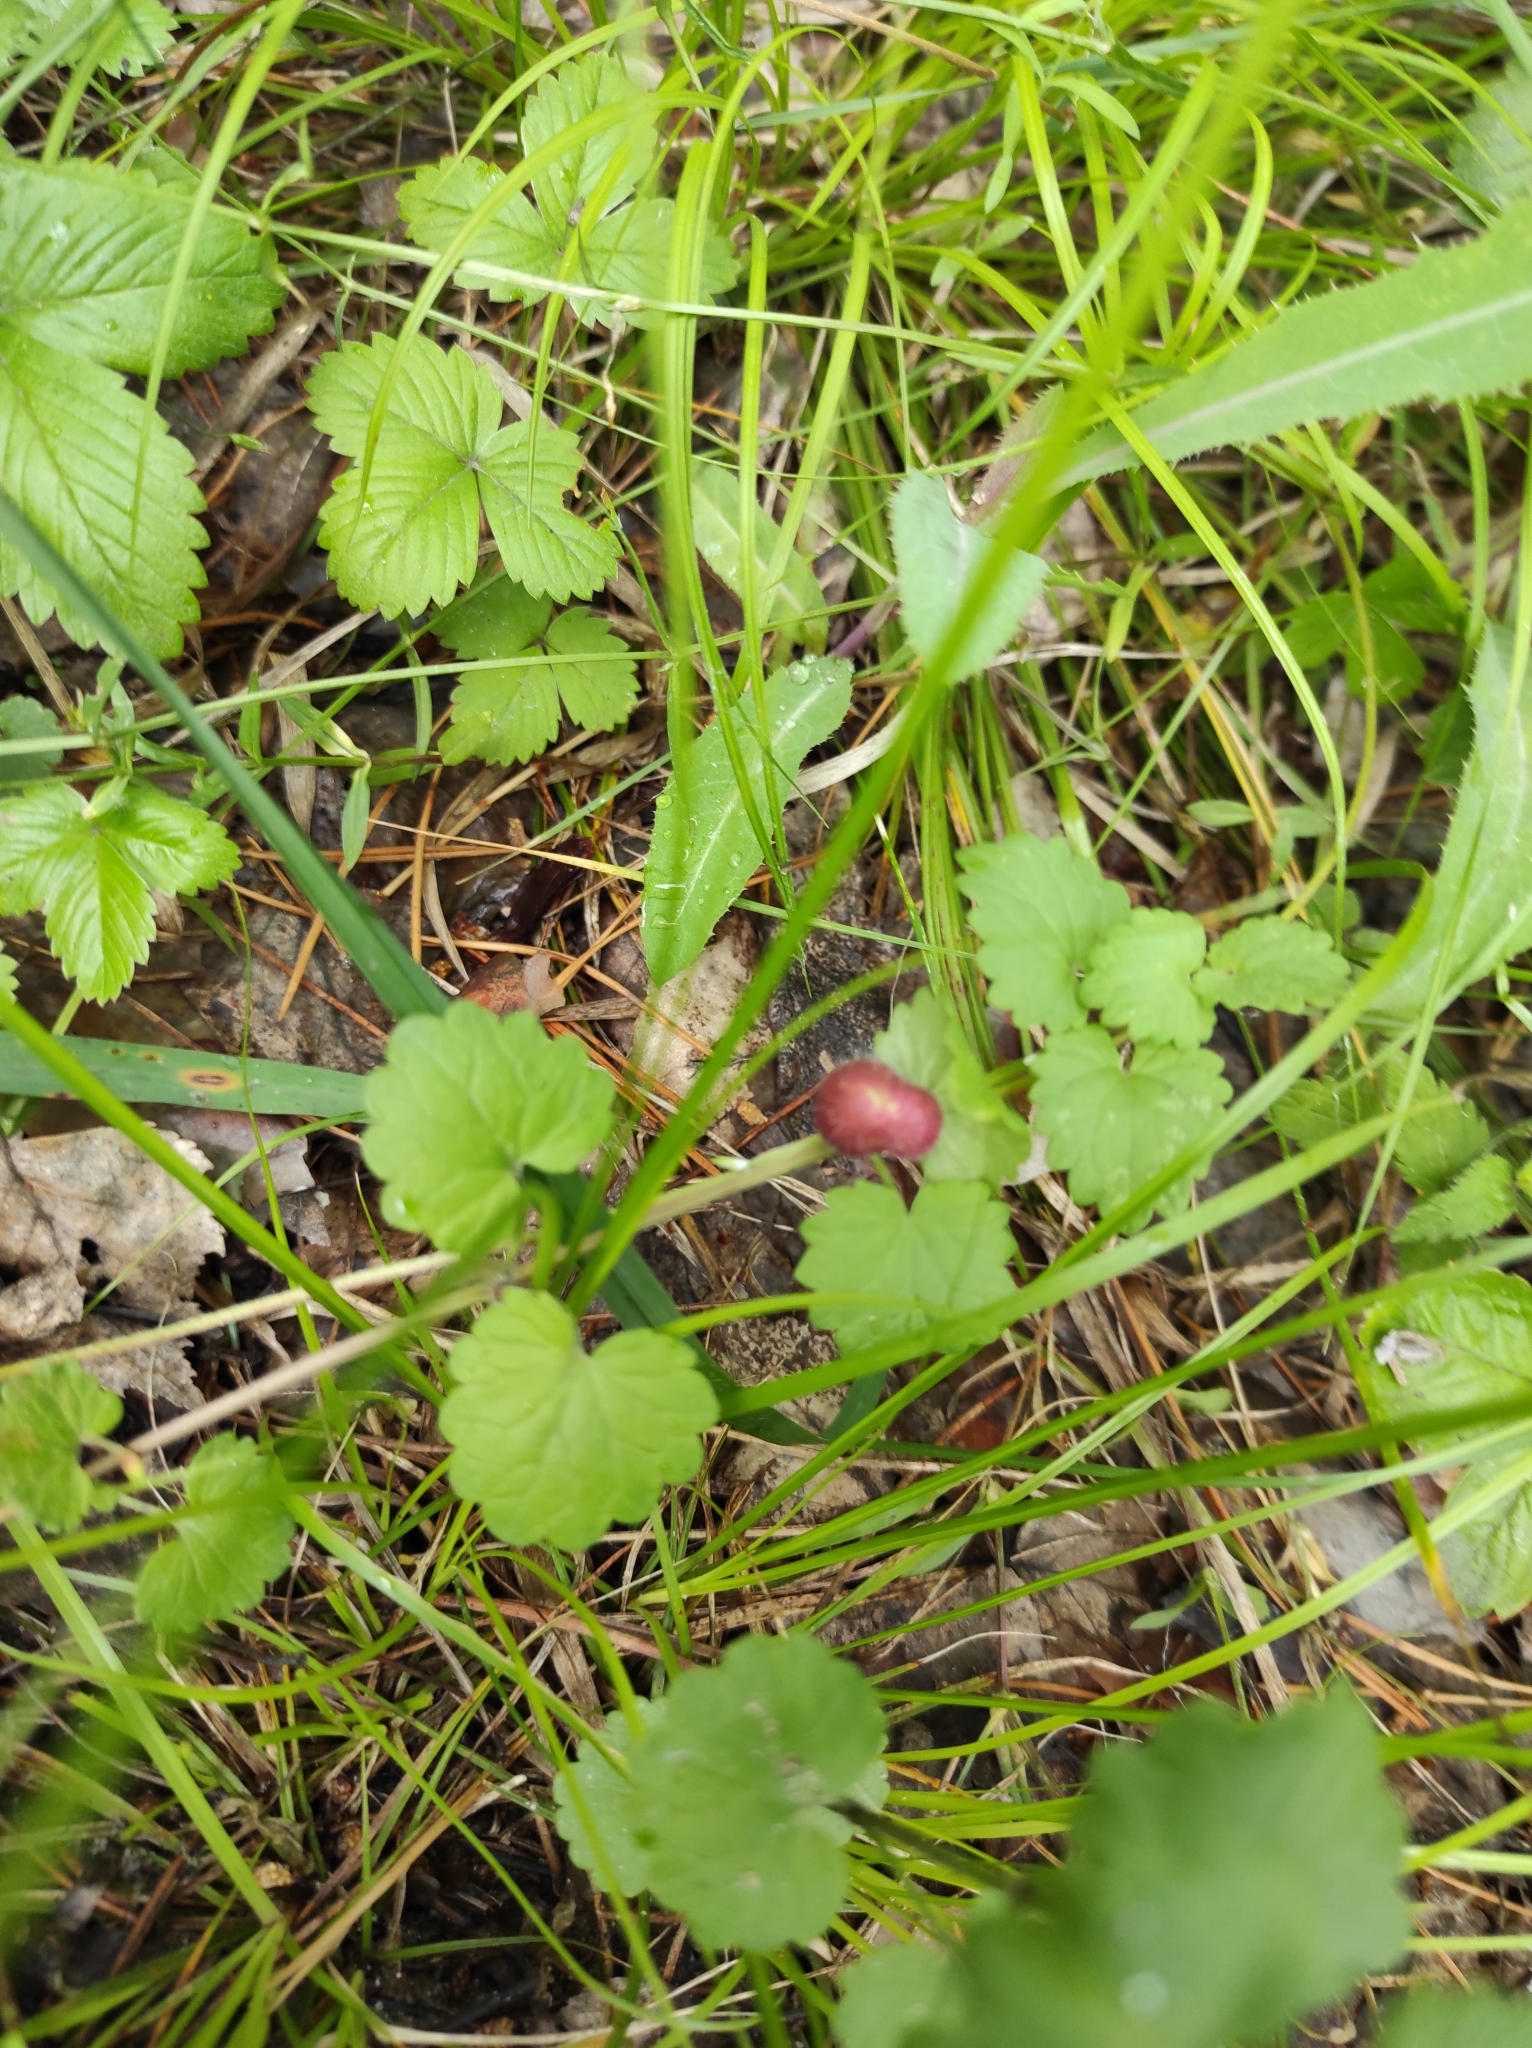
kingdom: Plantae
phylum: Tracheophyta
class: Magnoliopsida
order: Lamiales
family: Lamiaceae
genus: Glechoma
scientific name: Glechoma hederacea
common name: Ground ivy
